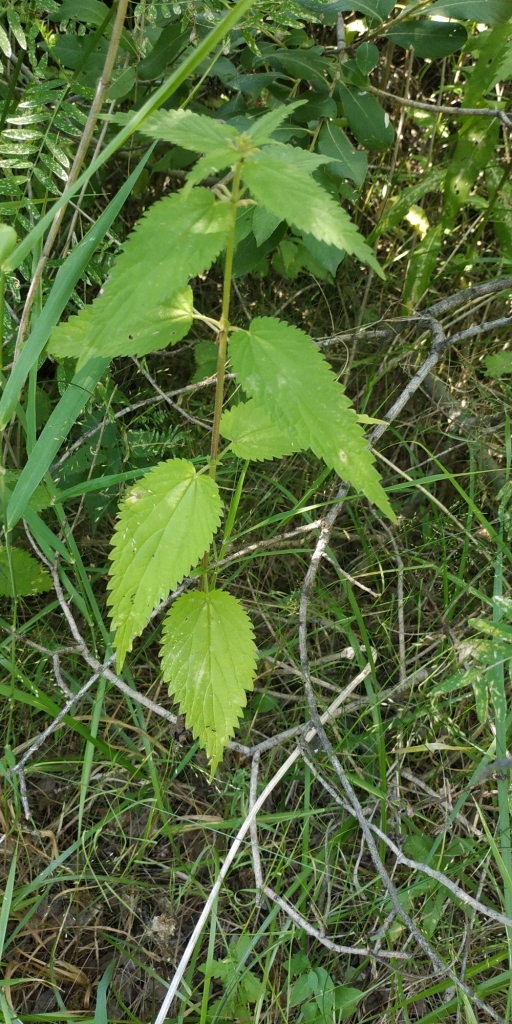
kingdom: Plantae
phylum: Tracheophyta
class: Magnoliopsida
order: Rosales
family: Urticaceae
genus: Urtica
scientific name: Urtica galeopsifolia
